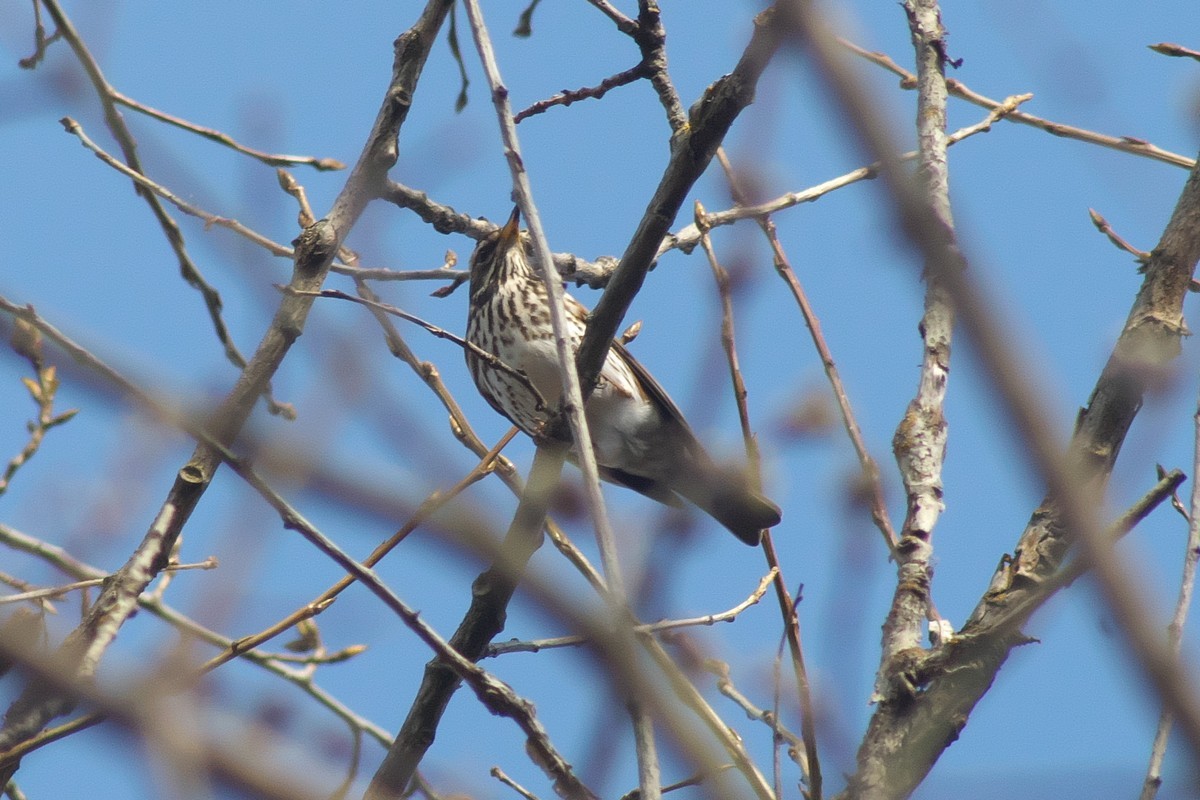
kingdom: Animalia
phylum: Chordata
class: Aves
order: Passeriformes
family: Turdidae
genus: Turdus
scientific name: Turdus iliacus
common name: Redwing
